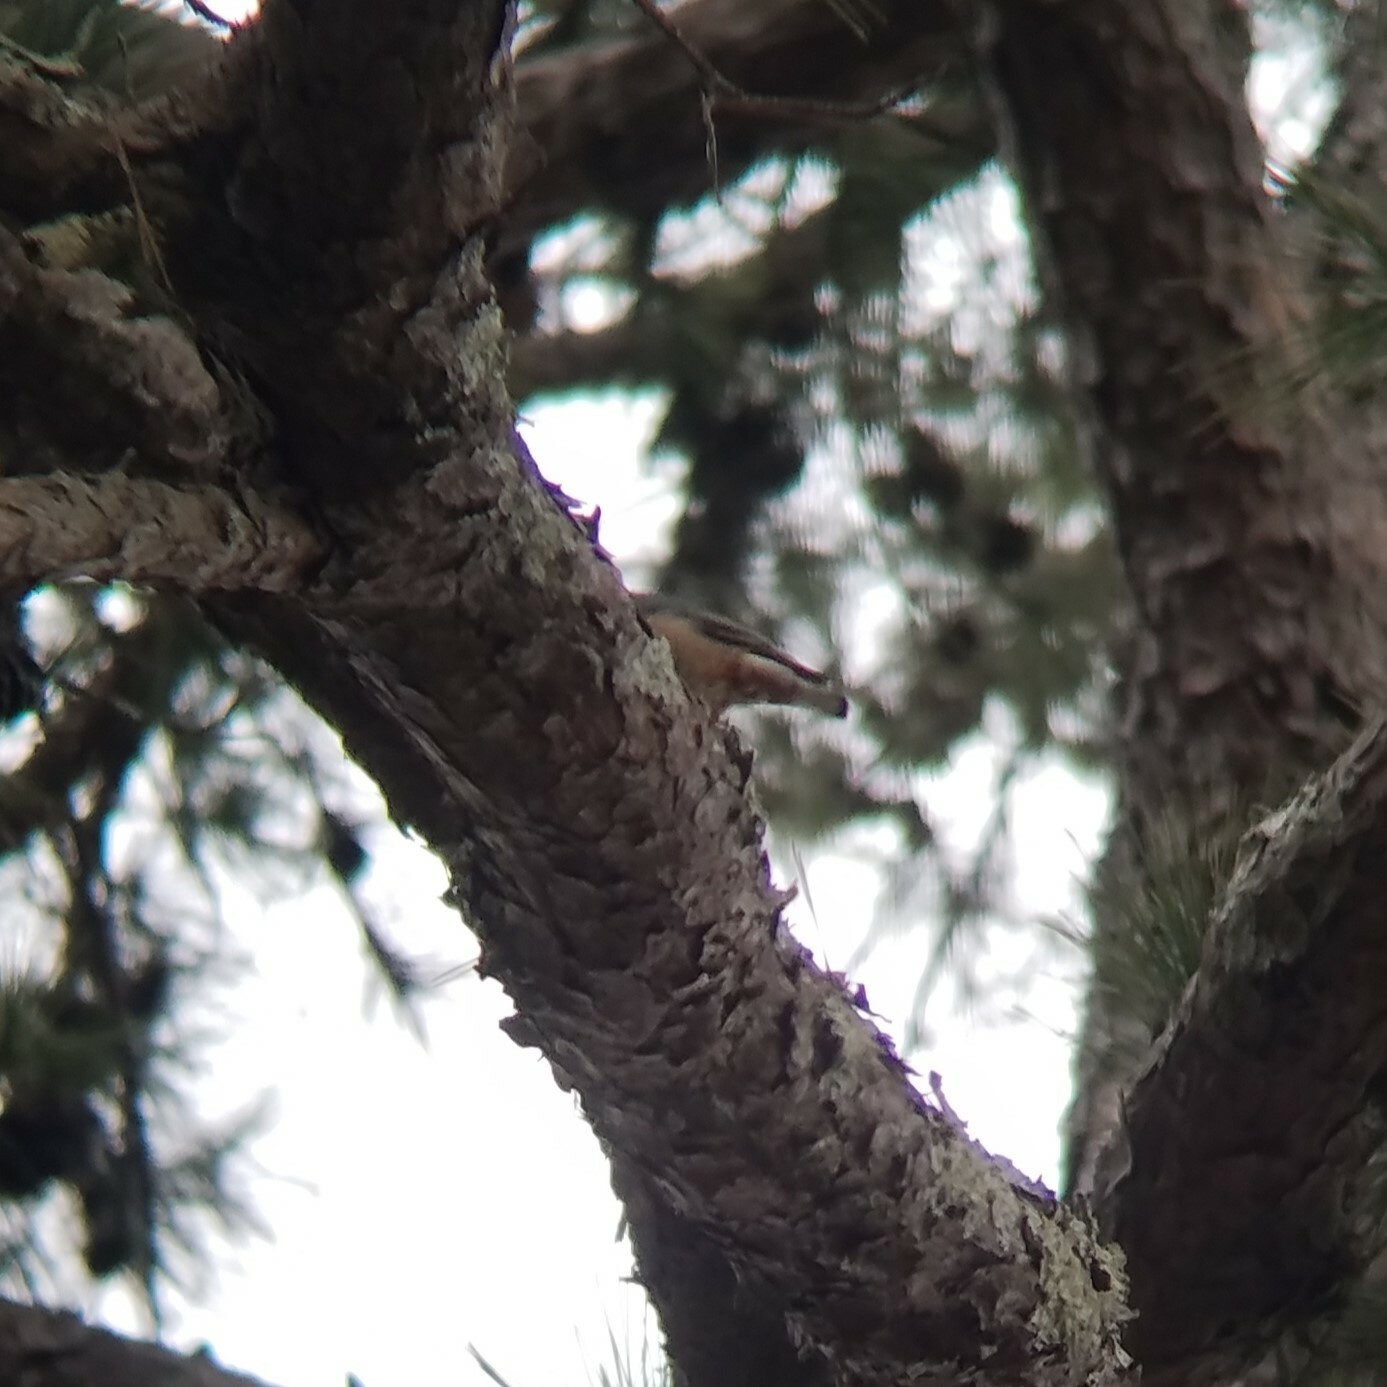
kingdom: Animalia
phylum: Chordata
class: Aves
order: Passeriformes
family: Sittidae
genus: Sitta
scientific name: Sitta carolinensis
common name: White-breasted nuthatch
